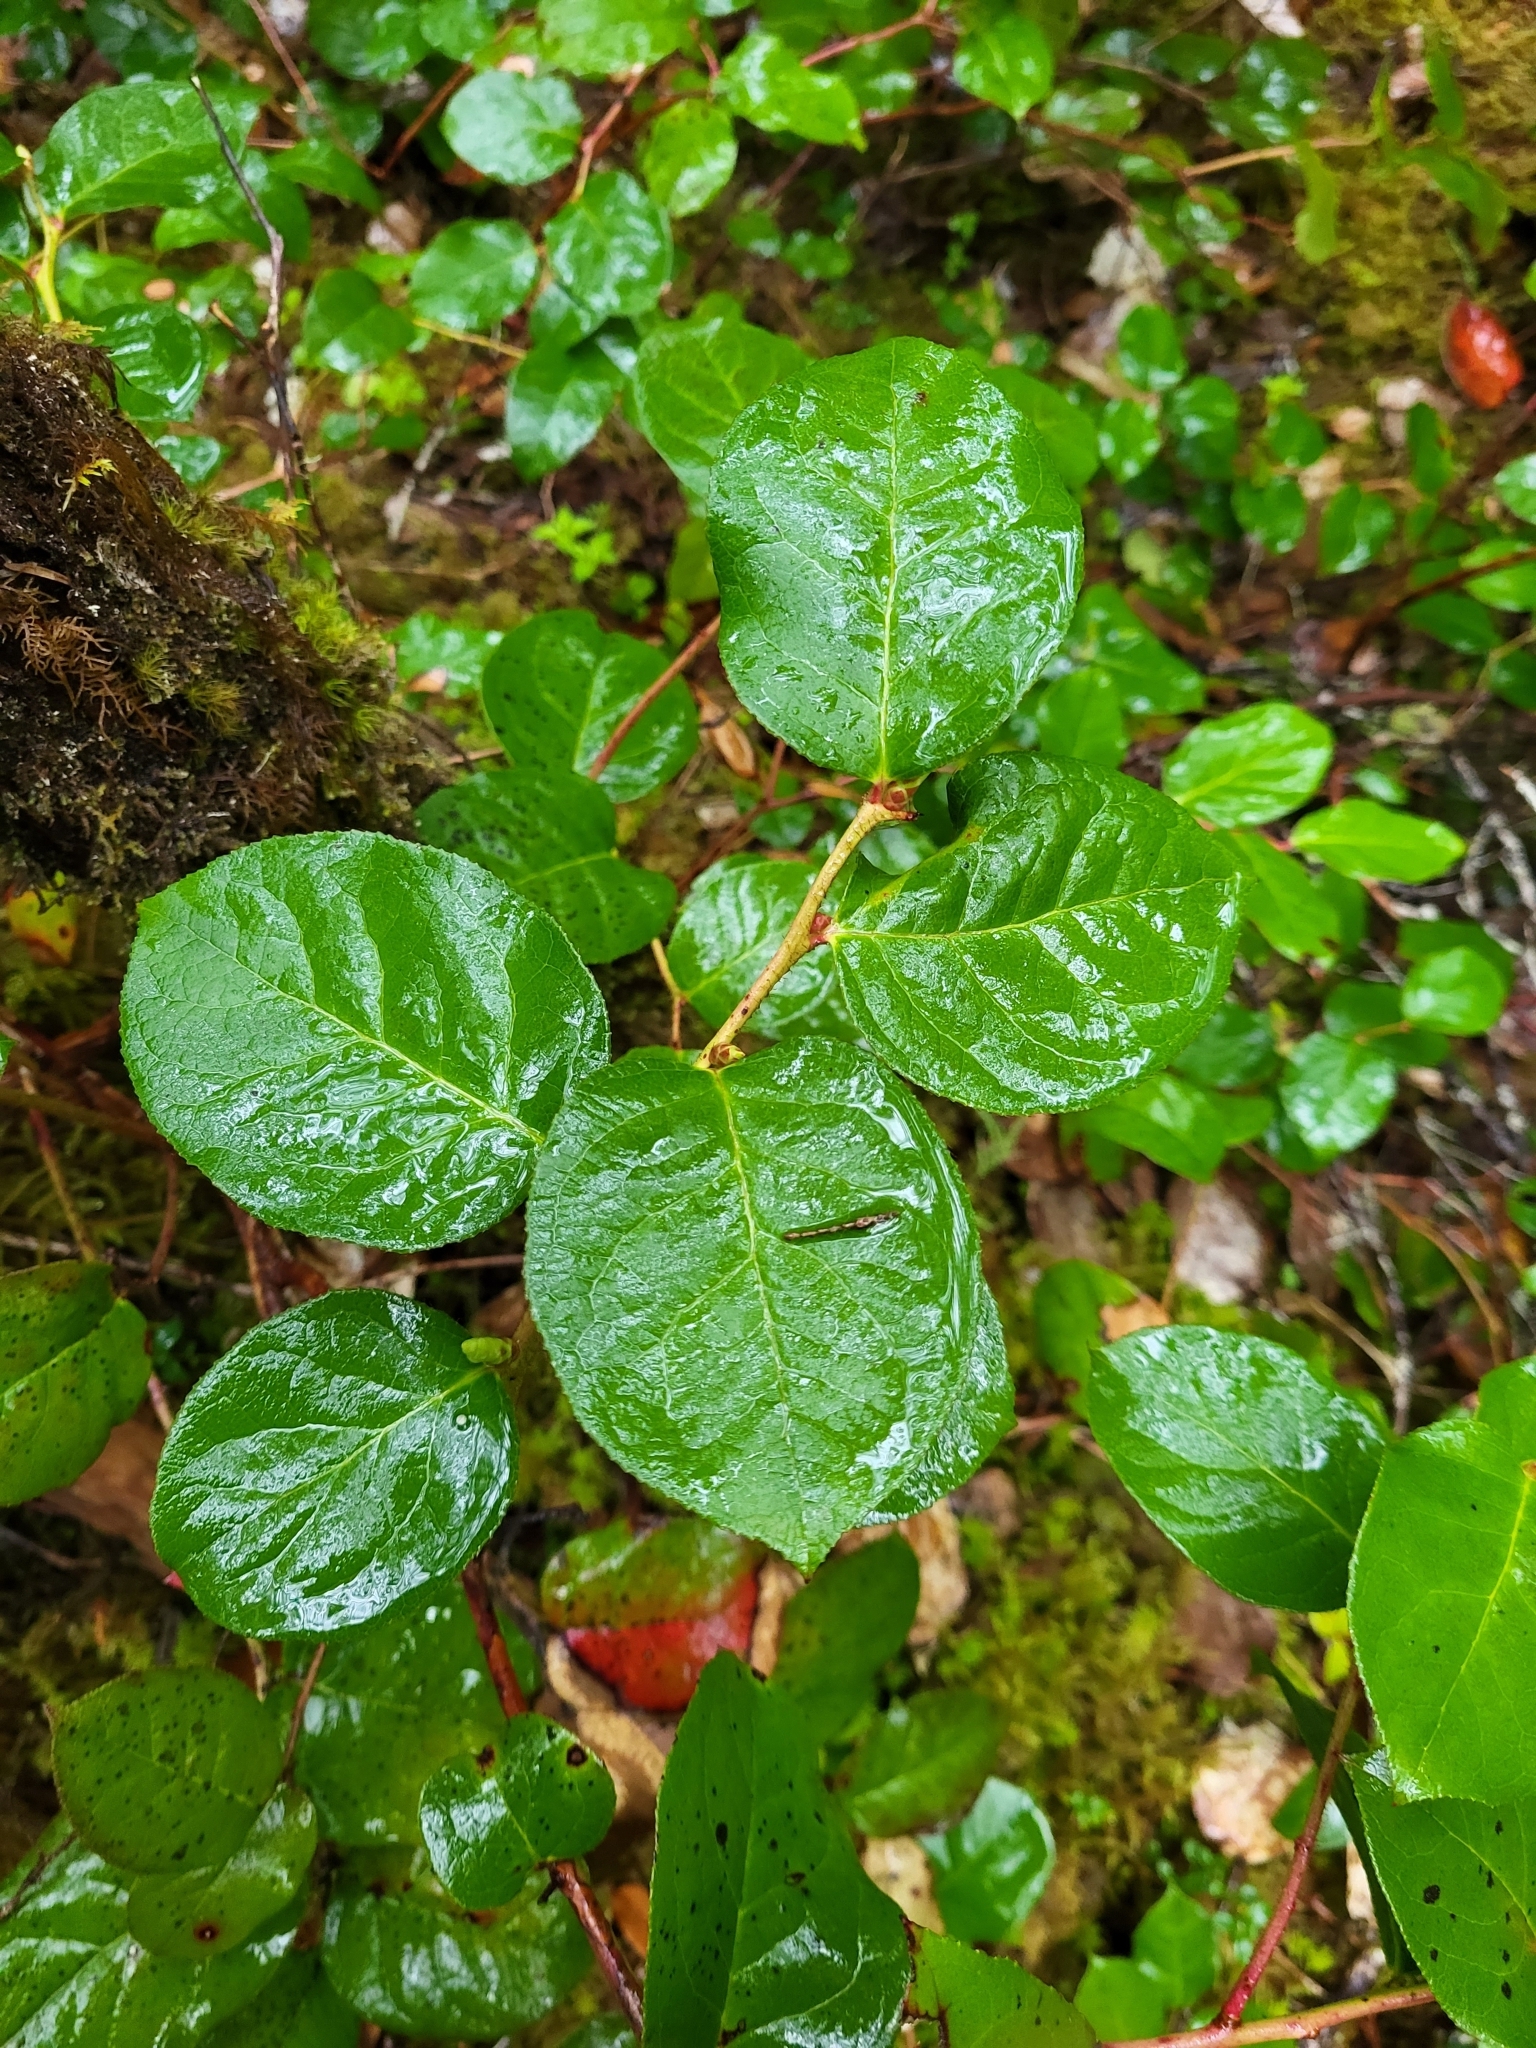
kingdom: Plantae
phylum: Tracheophyta
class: Magnoliopsida
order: Ericales
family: Ericaceae
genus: Gaultheria
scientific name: Gaultheria shallon
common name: Shallon
